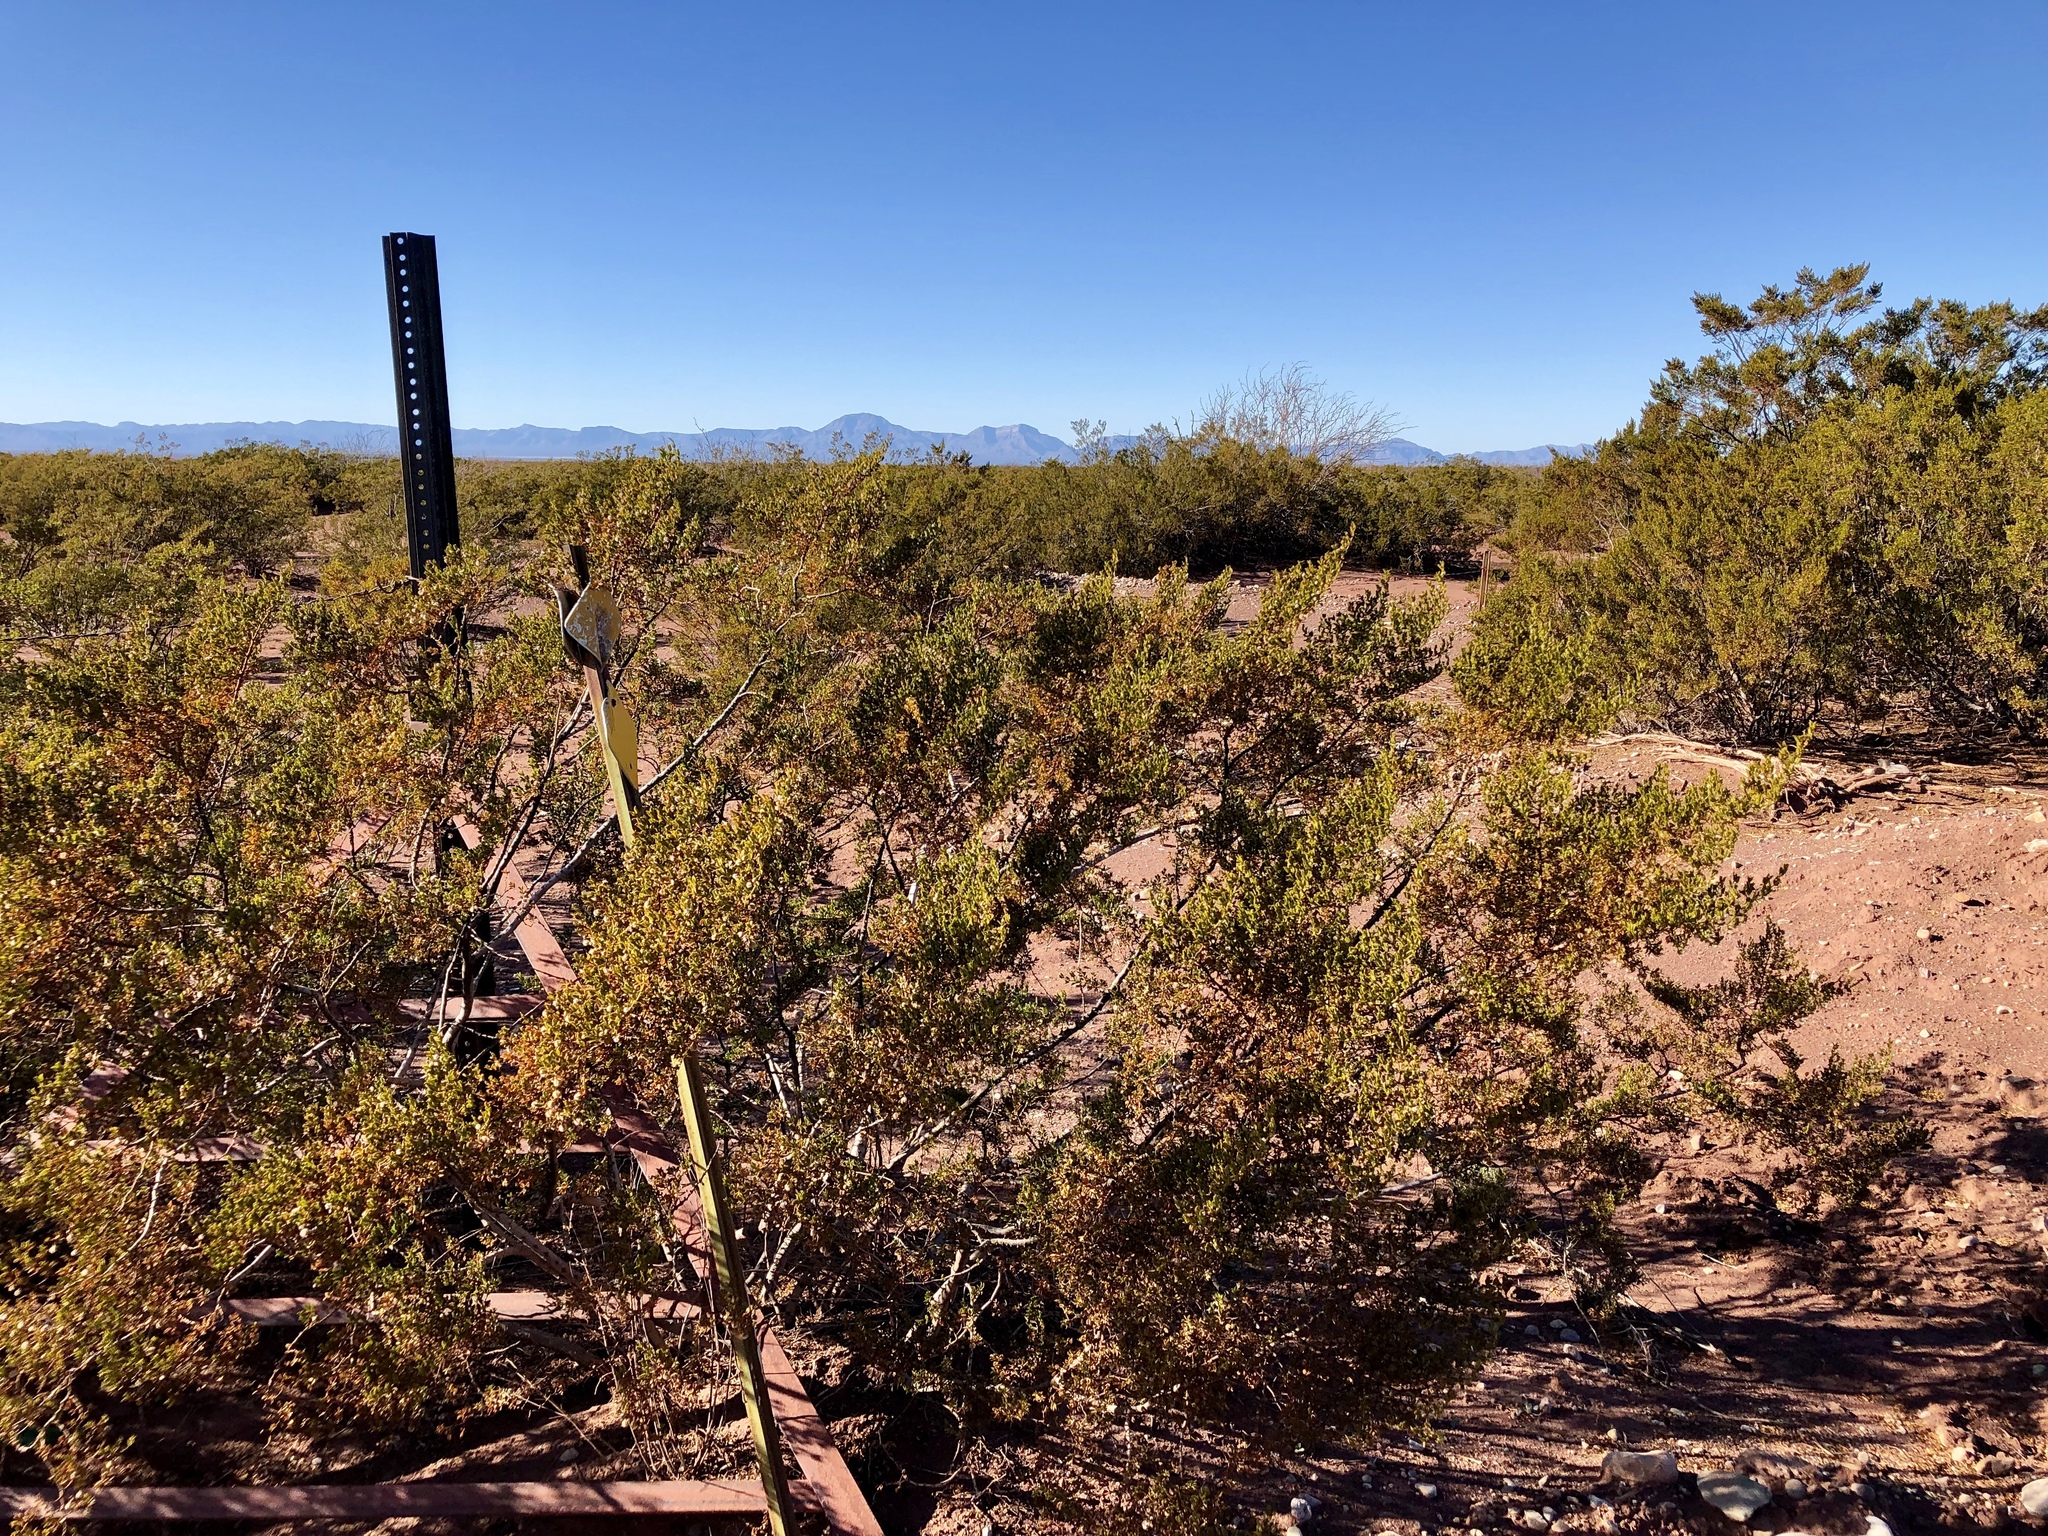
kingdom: Plantae
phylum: Tracheophyta
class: Magnoliopsida
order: Zygophyllales
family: Zygophyllaceae
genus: Larrea
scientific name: Larrea tridentata
